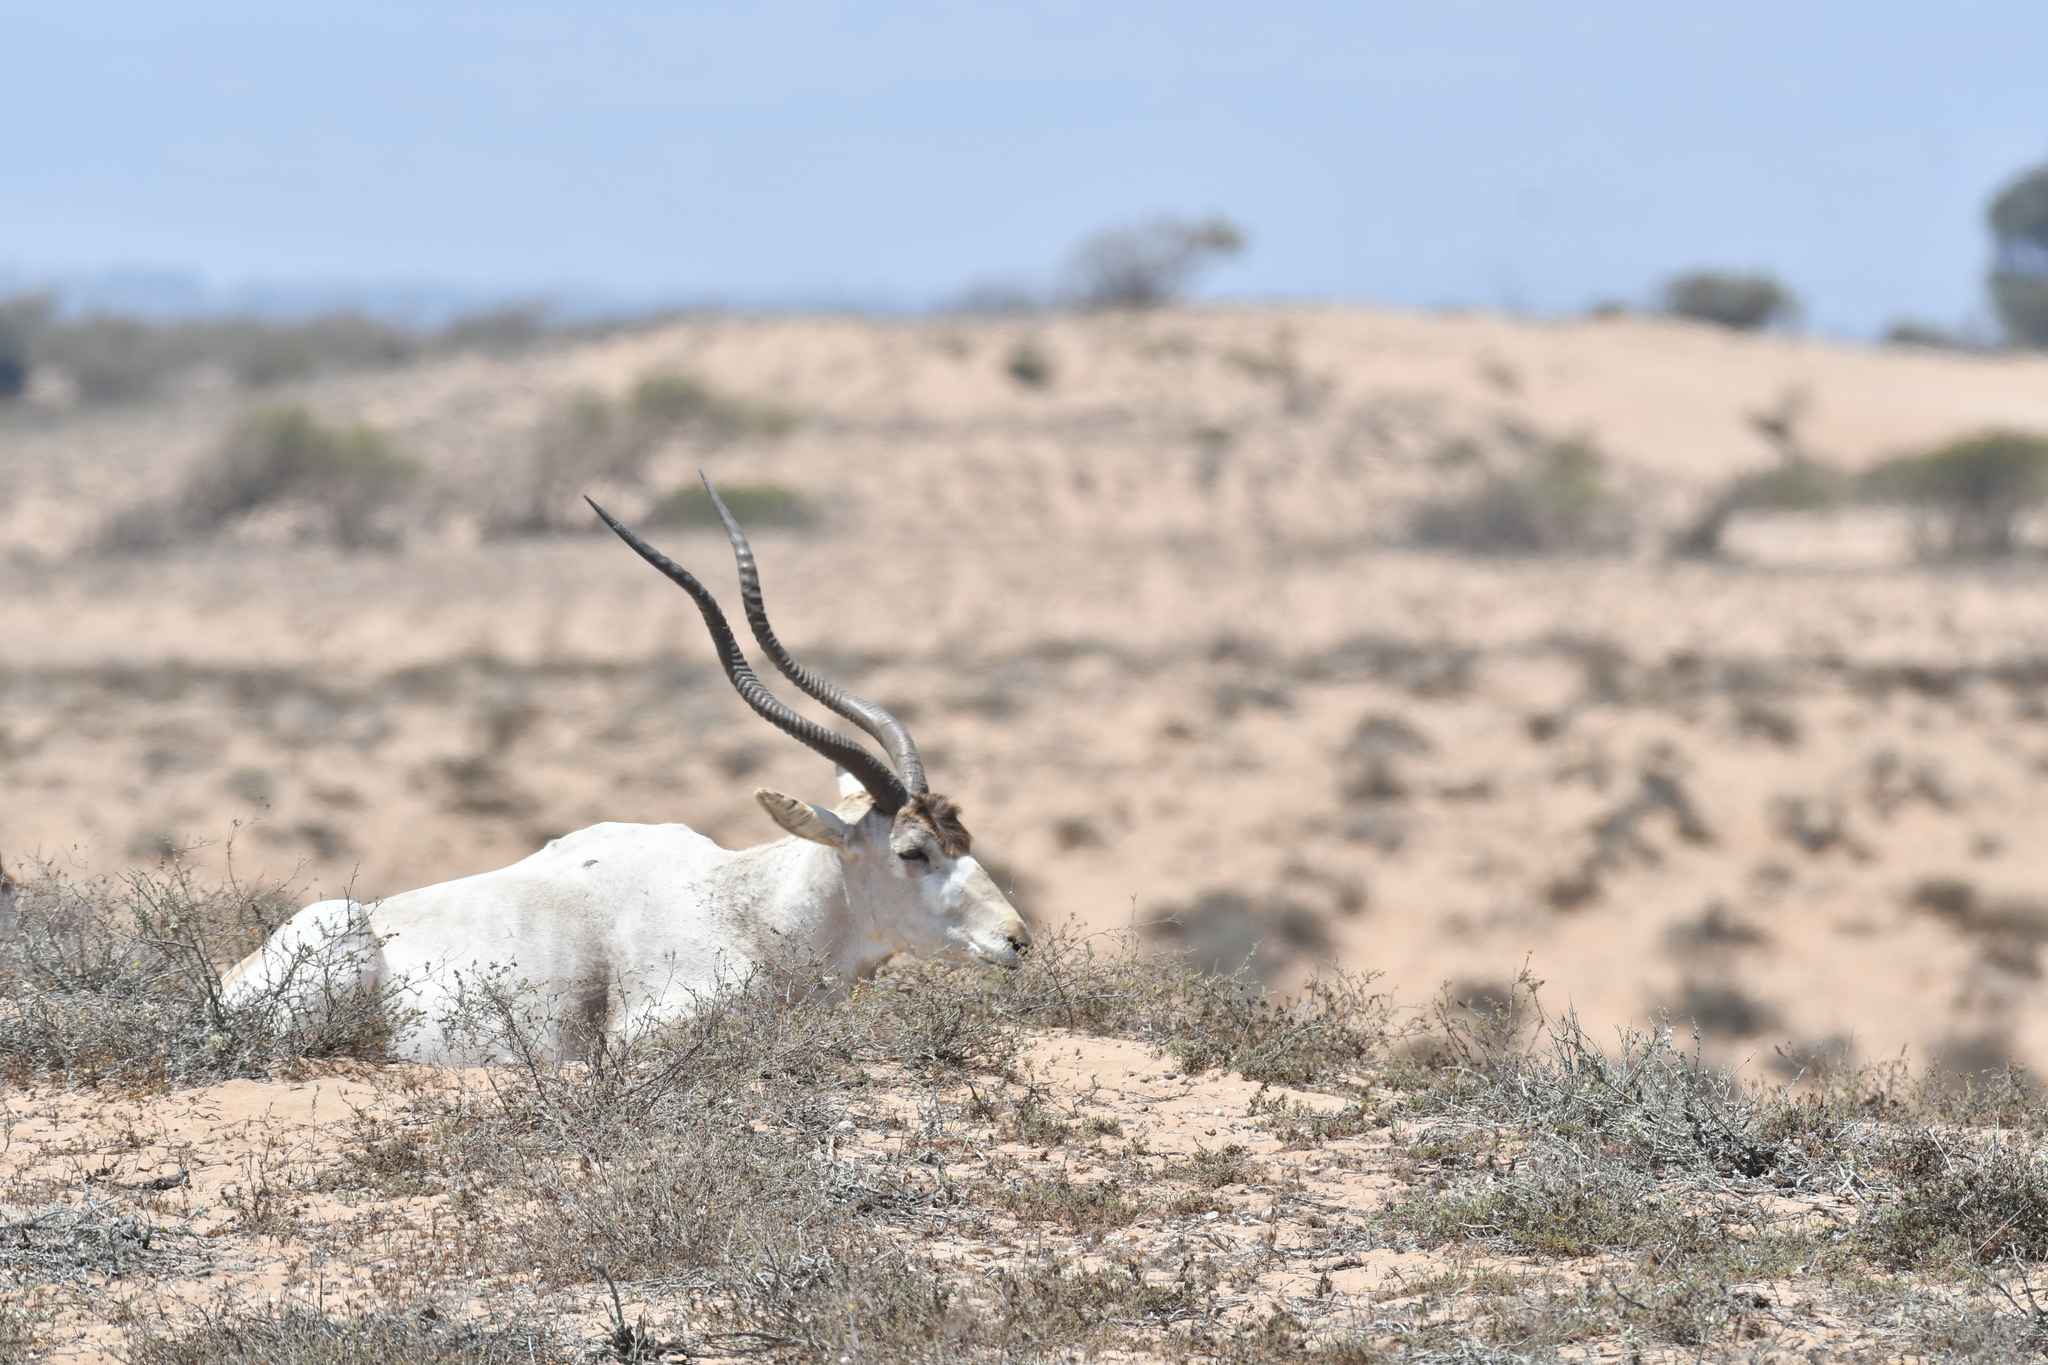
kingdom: Animalia
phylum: Chordata
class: Mammalia
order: Artiodactyla
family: Bovidae
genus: Addax
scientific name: Addax nasomaculatus
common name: Addax
